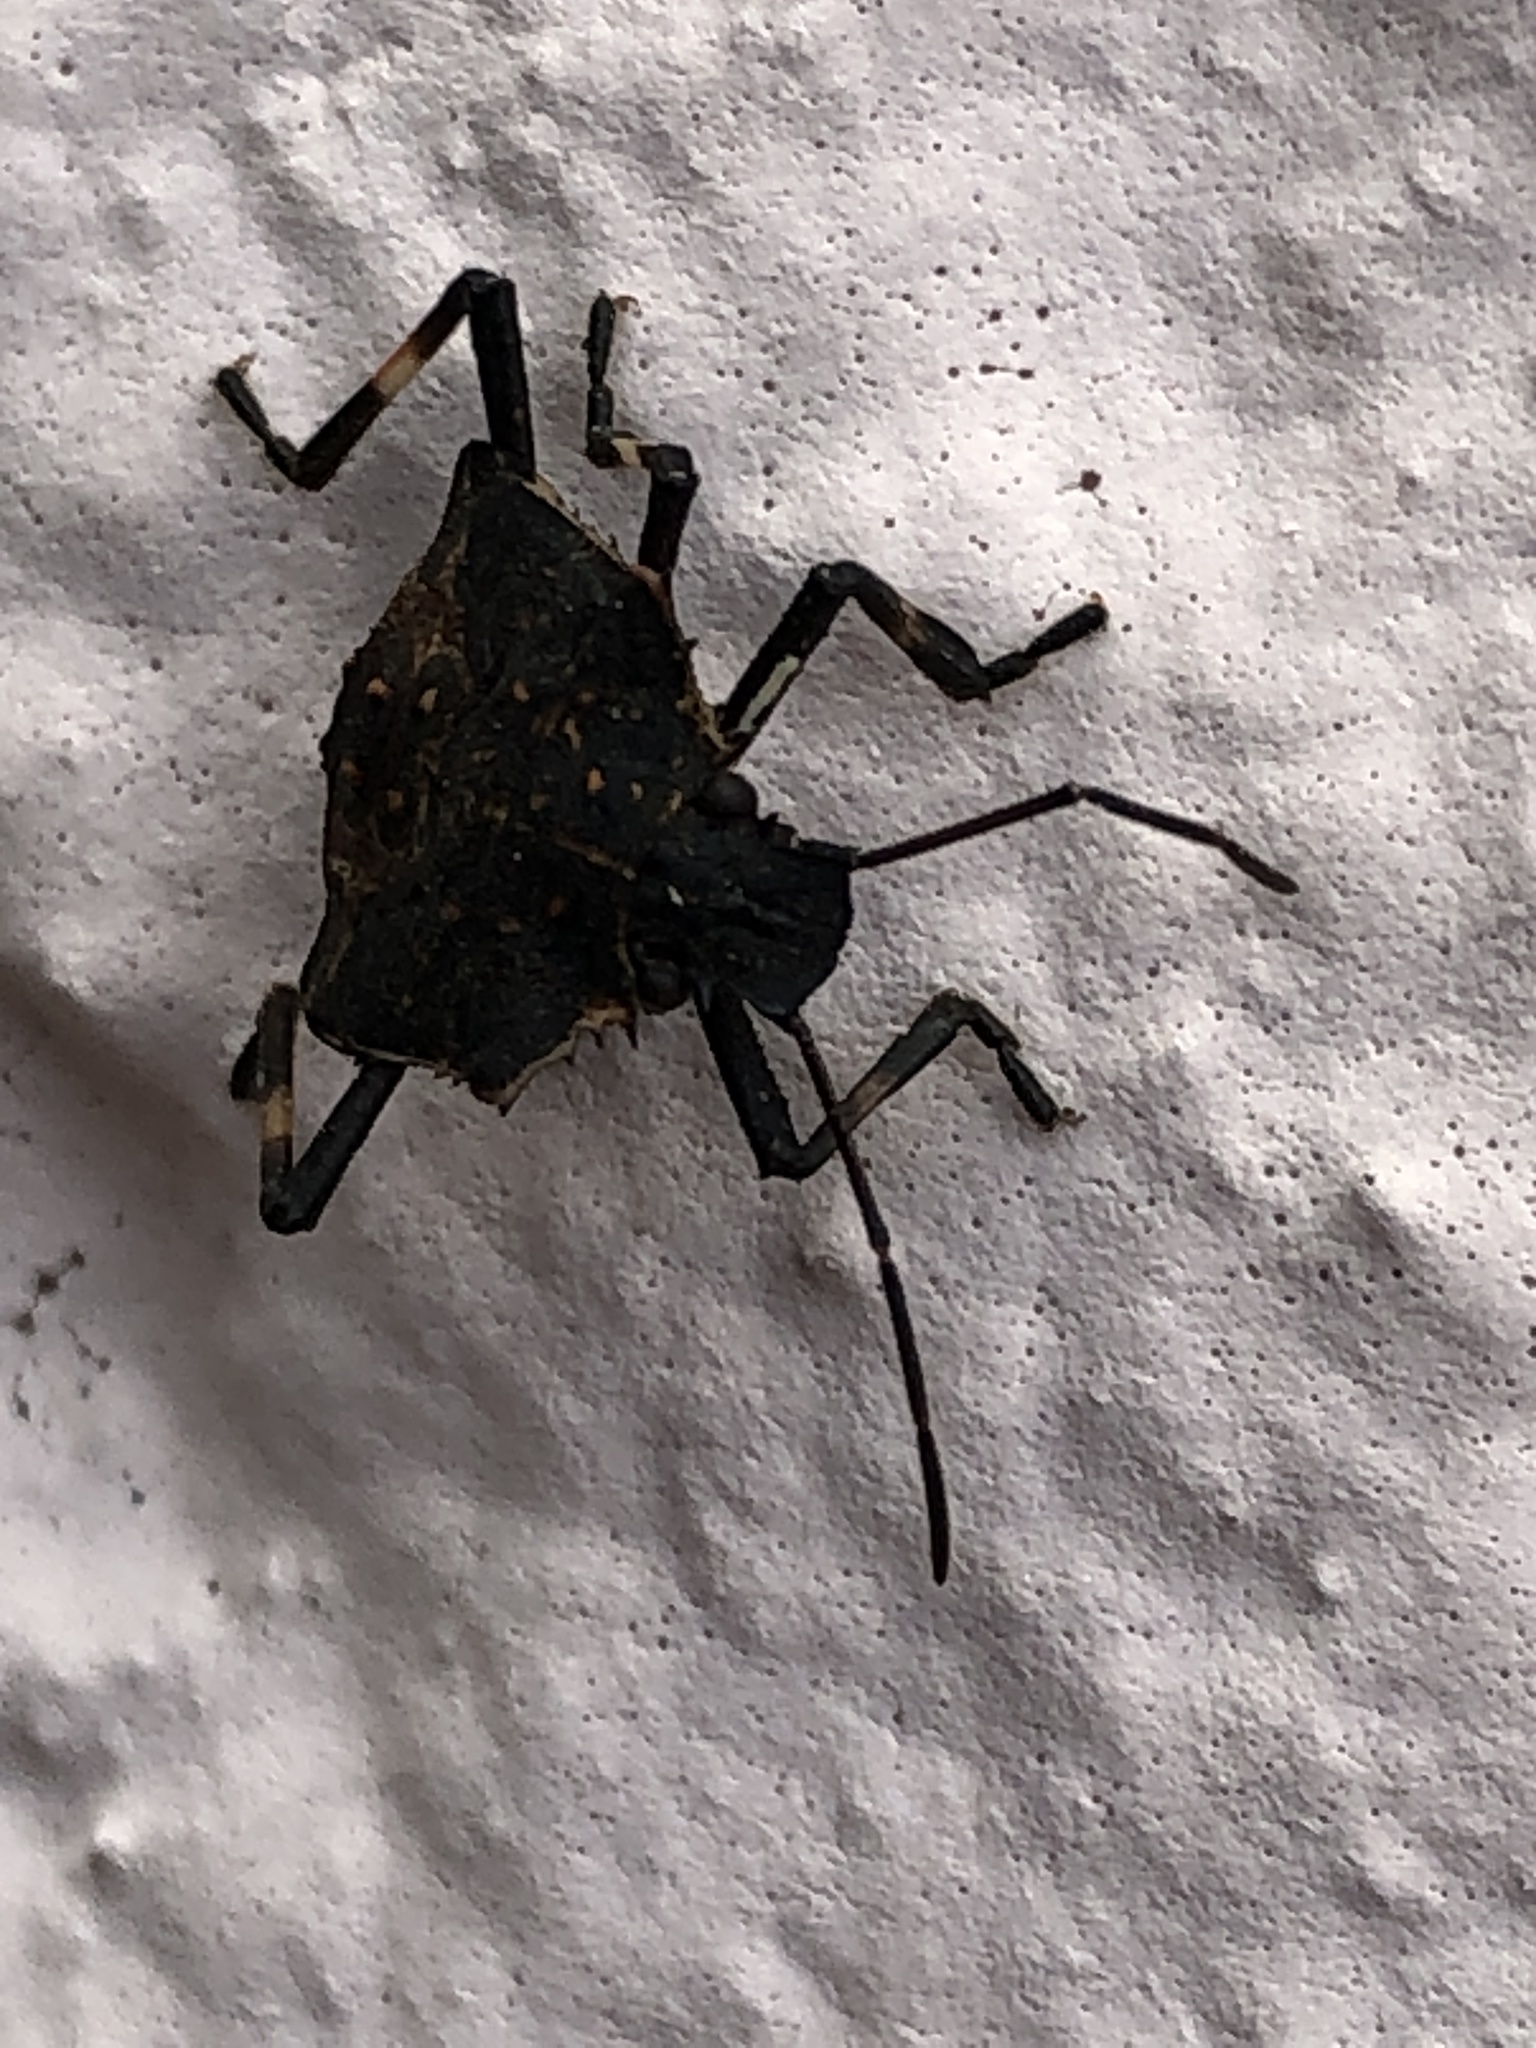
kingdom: Animalia
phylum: Arthropoda
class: Insecta
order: Hemiptera
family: Pentatomidae
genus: Halyomorpha
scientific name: Halyomorpha halys
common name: Brown marmorated stink bug
